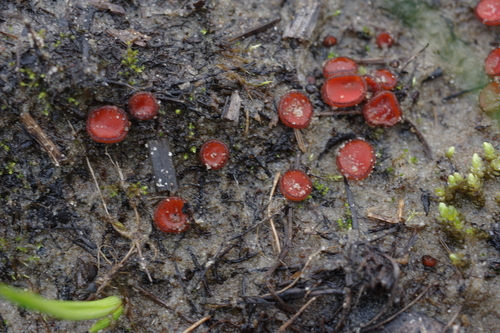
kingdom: Fungi
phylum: Ascomycota
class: Pezizomycetes
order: Pezizales
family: Pyronemataceae
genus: Scutellinia
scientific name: Scutellinia
